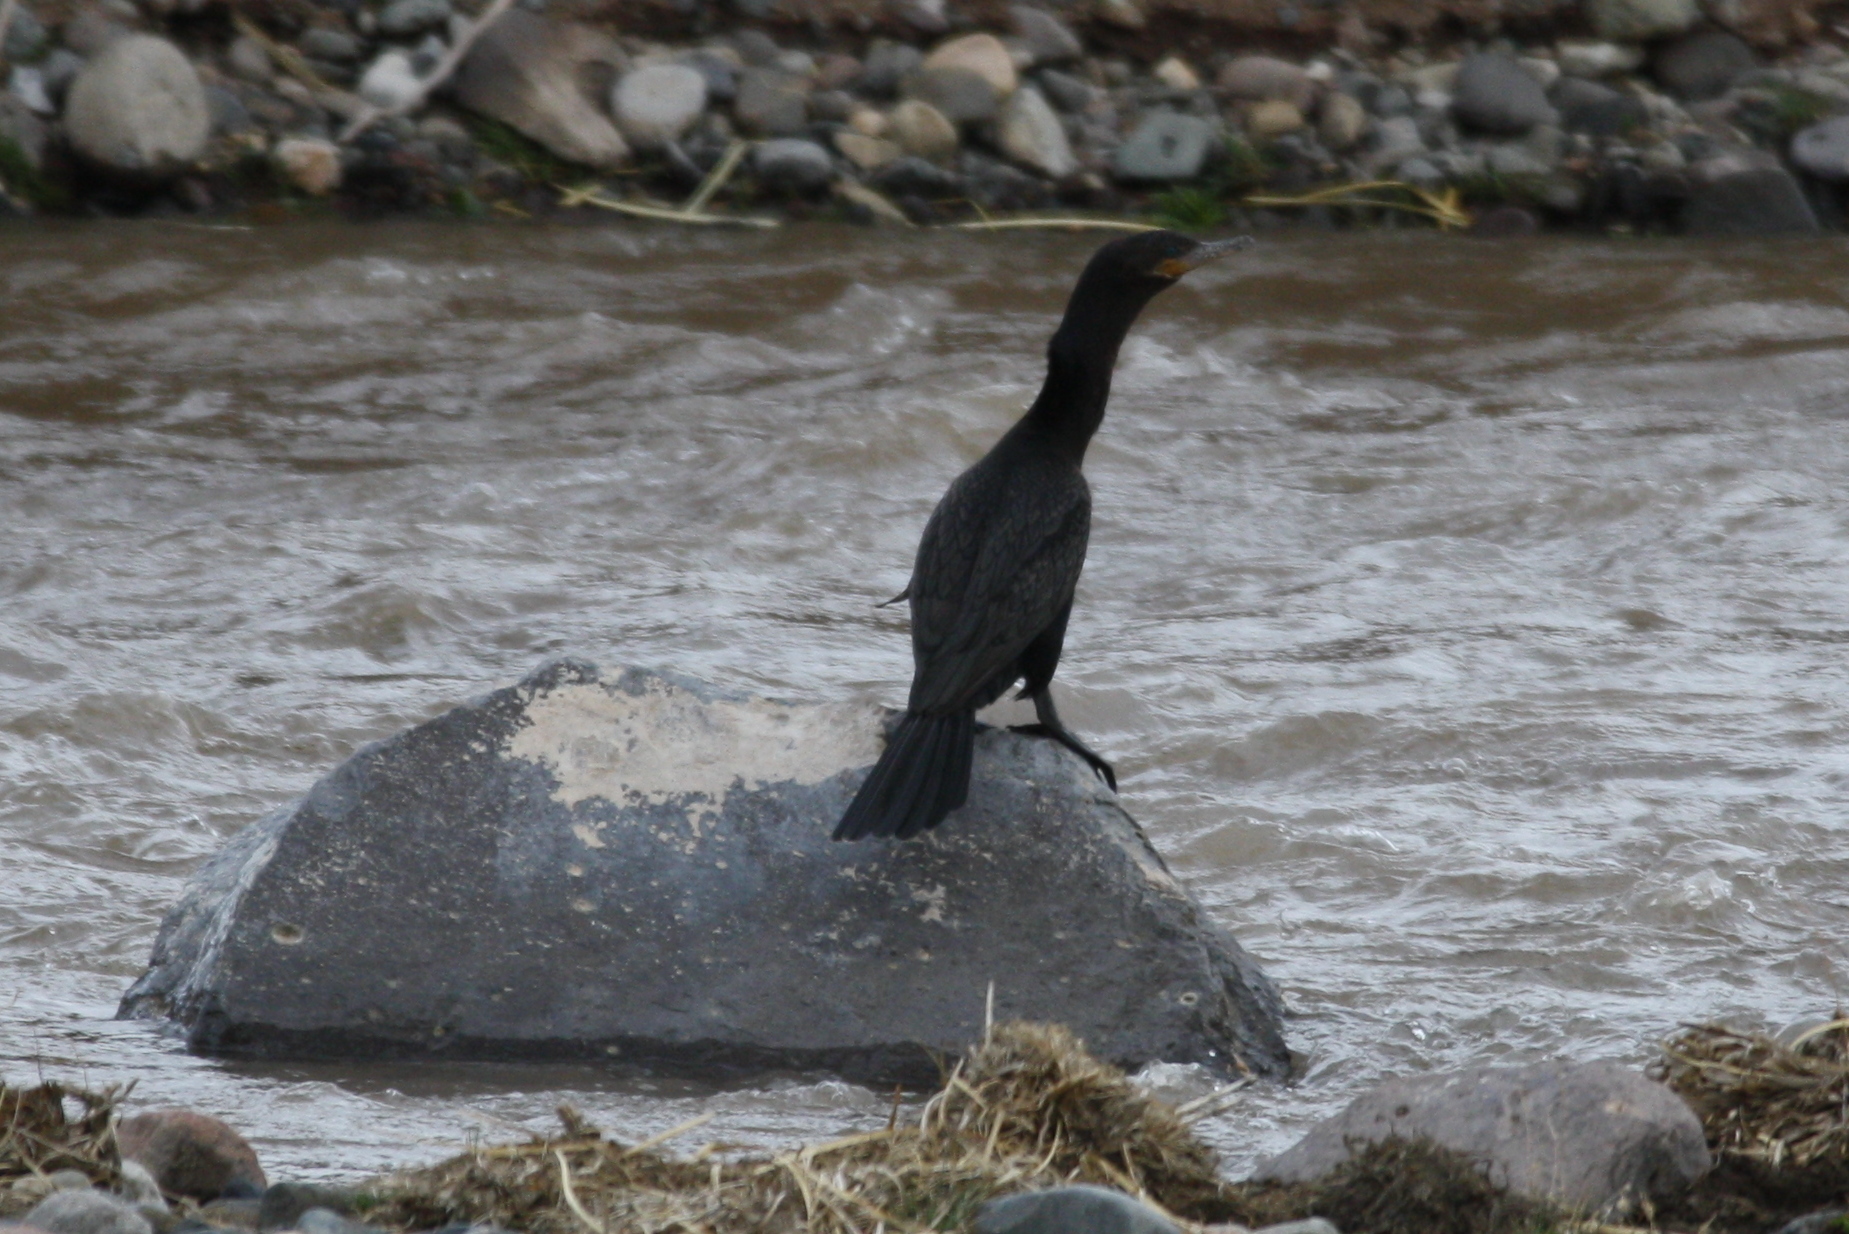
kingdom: Animalia
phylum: Chordata
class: Aves
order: Suliformes
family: Phalacrocoracidae
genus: Phalacrocorax
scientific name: Phalacrocorax brasilianus
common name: Neotropic cormorant
